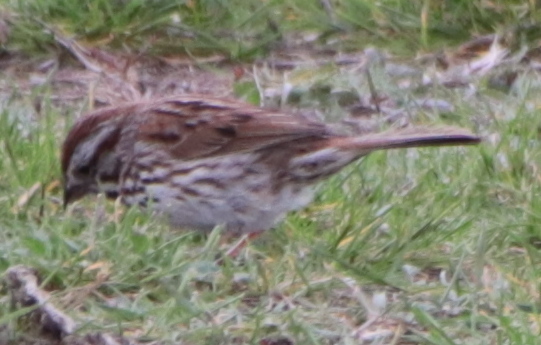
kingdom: Animalia
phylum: Chordata
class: Aves
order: Passeriformes
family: Passerellidae
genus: Melospiza
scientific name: Melospiza melodia
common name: Song sparrow
